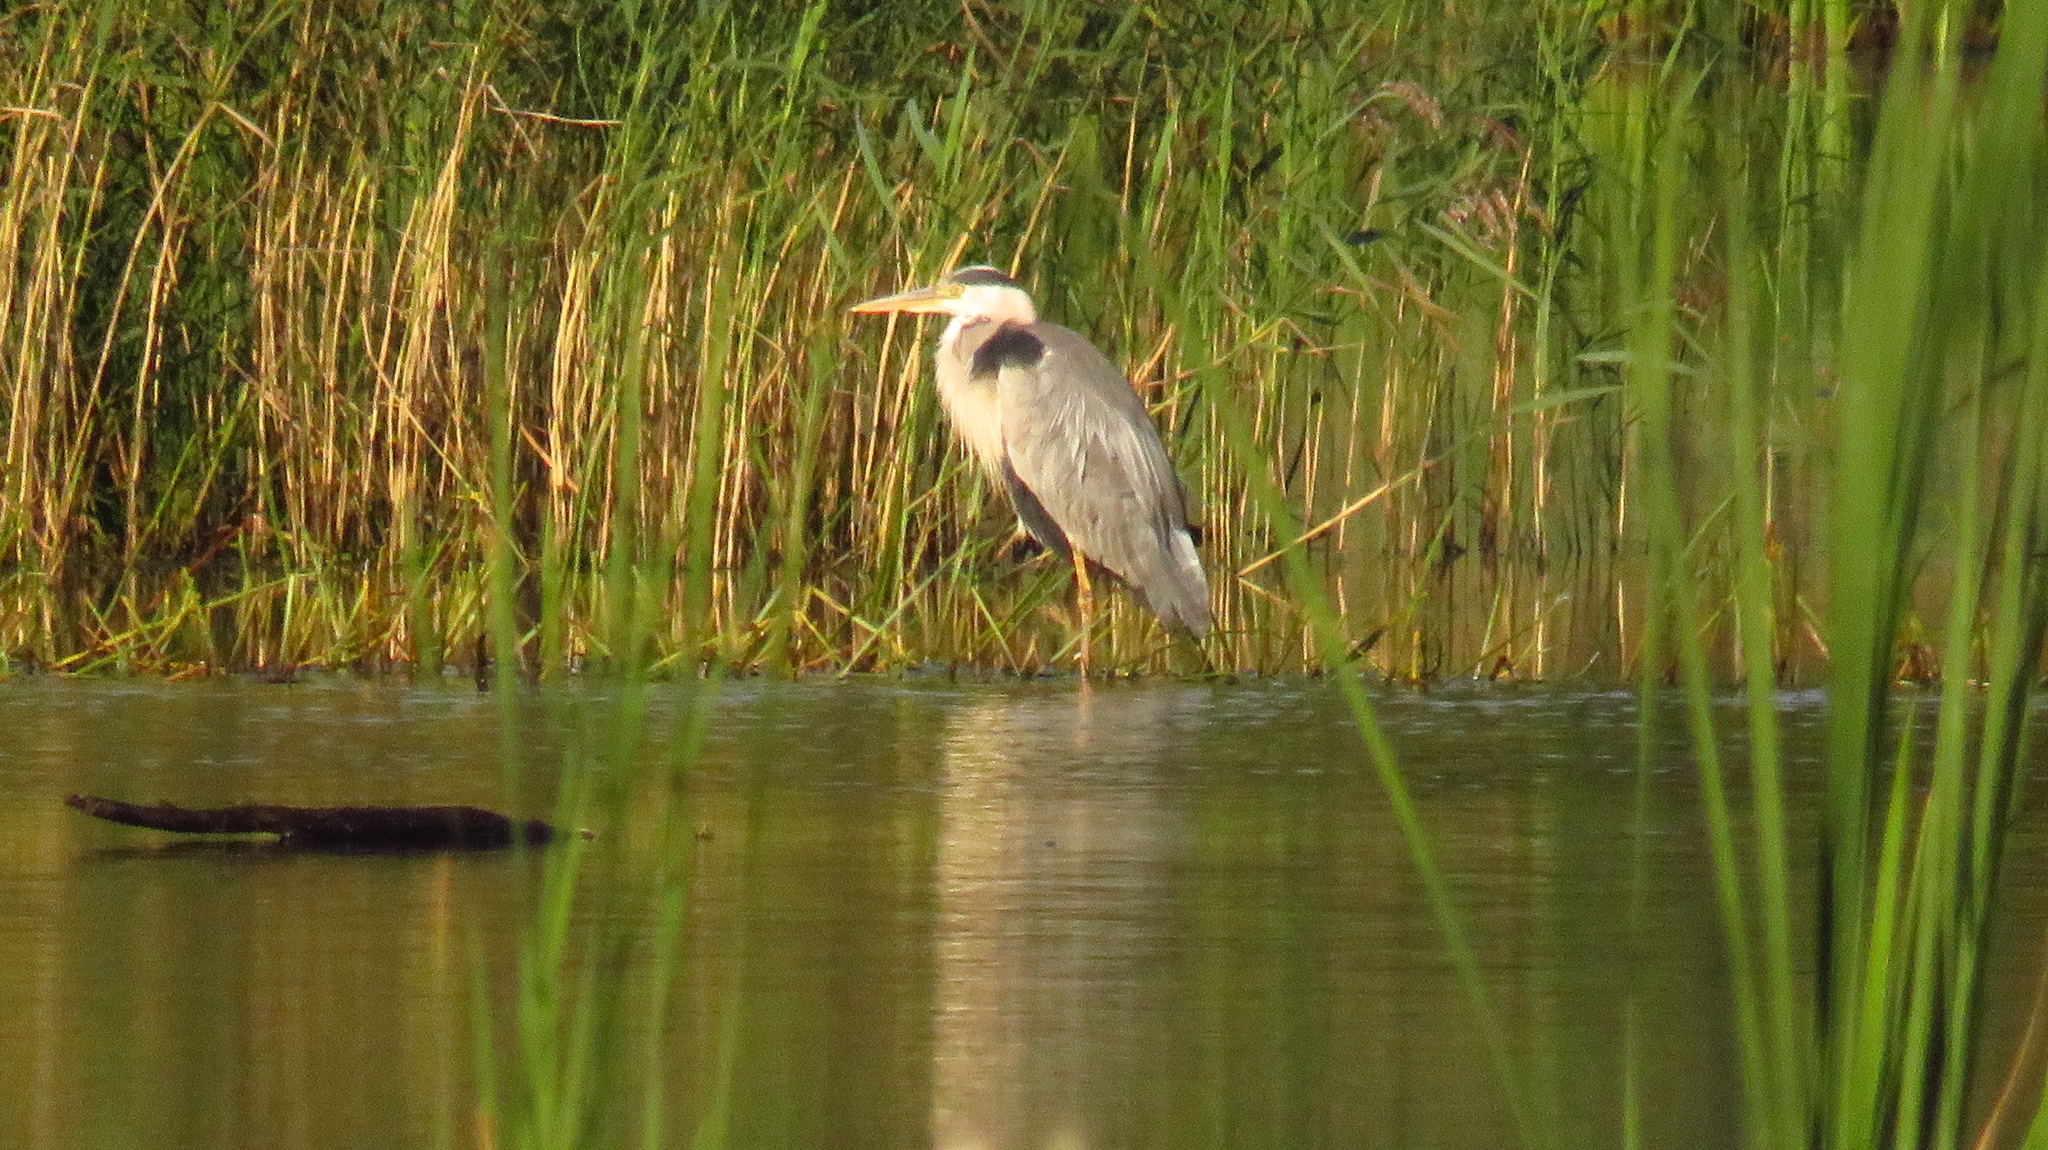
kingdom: Animalia
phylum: Chordata
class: Aves
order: Pelecaniformes
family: Ardeidae
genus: Ardea
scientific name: Ardea cinerea
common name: Grey heron
